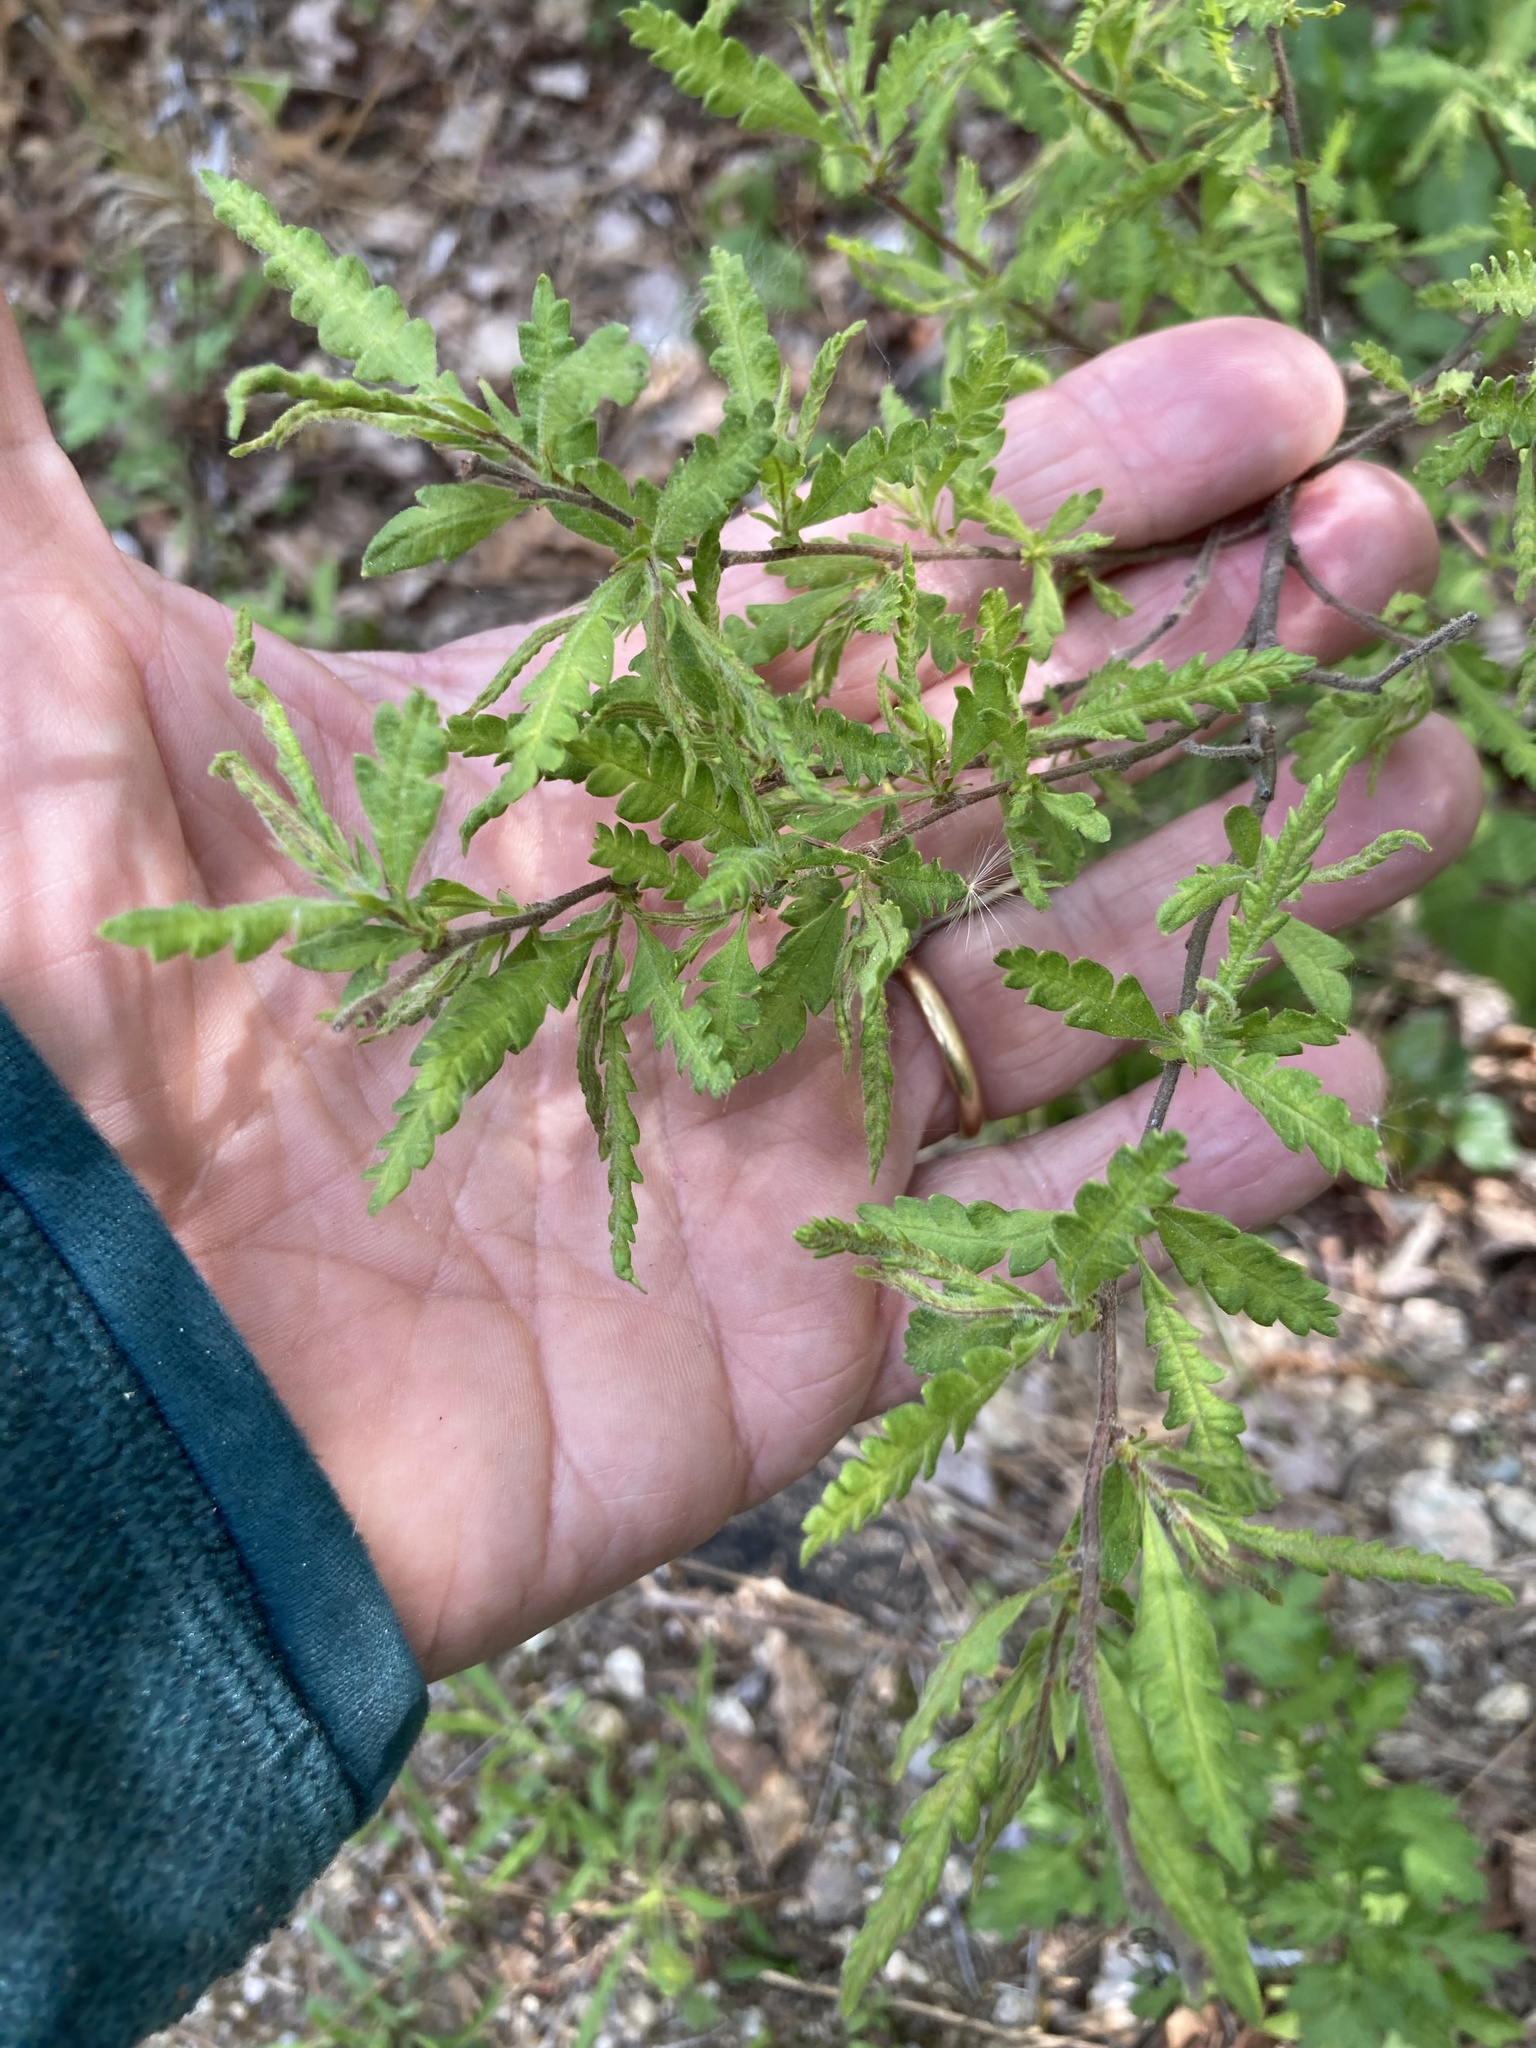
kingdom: Plantae
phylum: Tracheophyta
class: Magnoliopsida
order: Fagales
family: Myricaceae
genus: Comptonia
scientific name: Comptonia peregrina
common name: Sweet-fern
